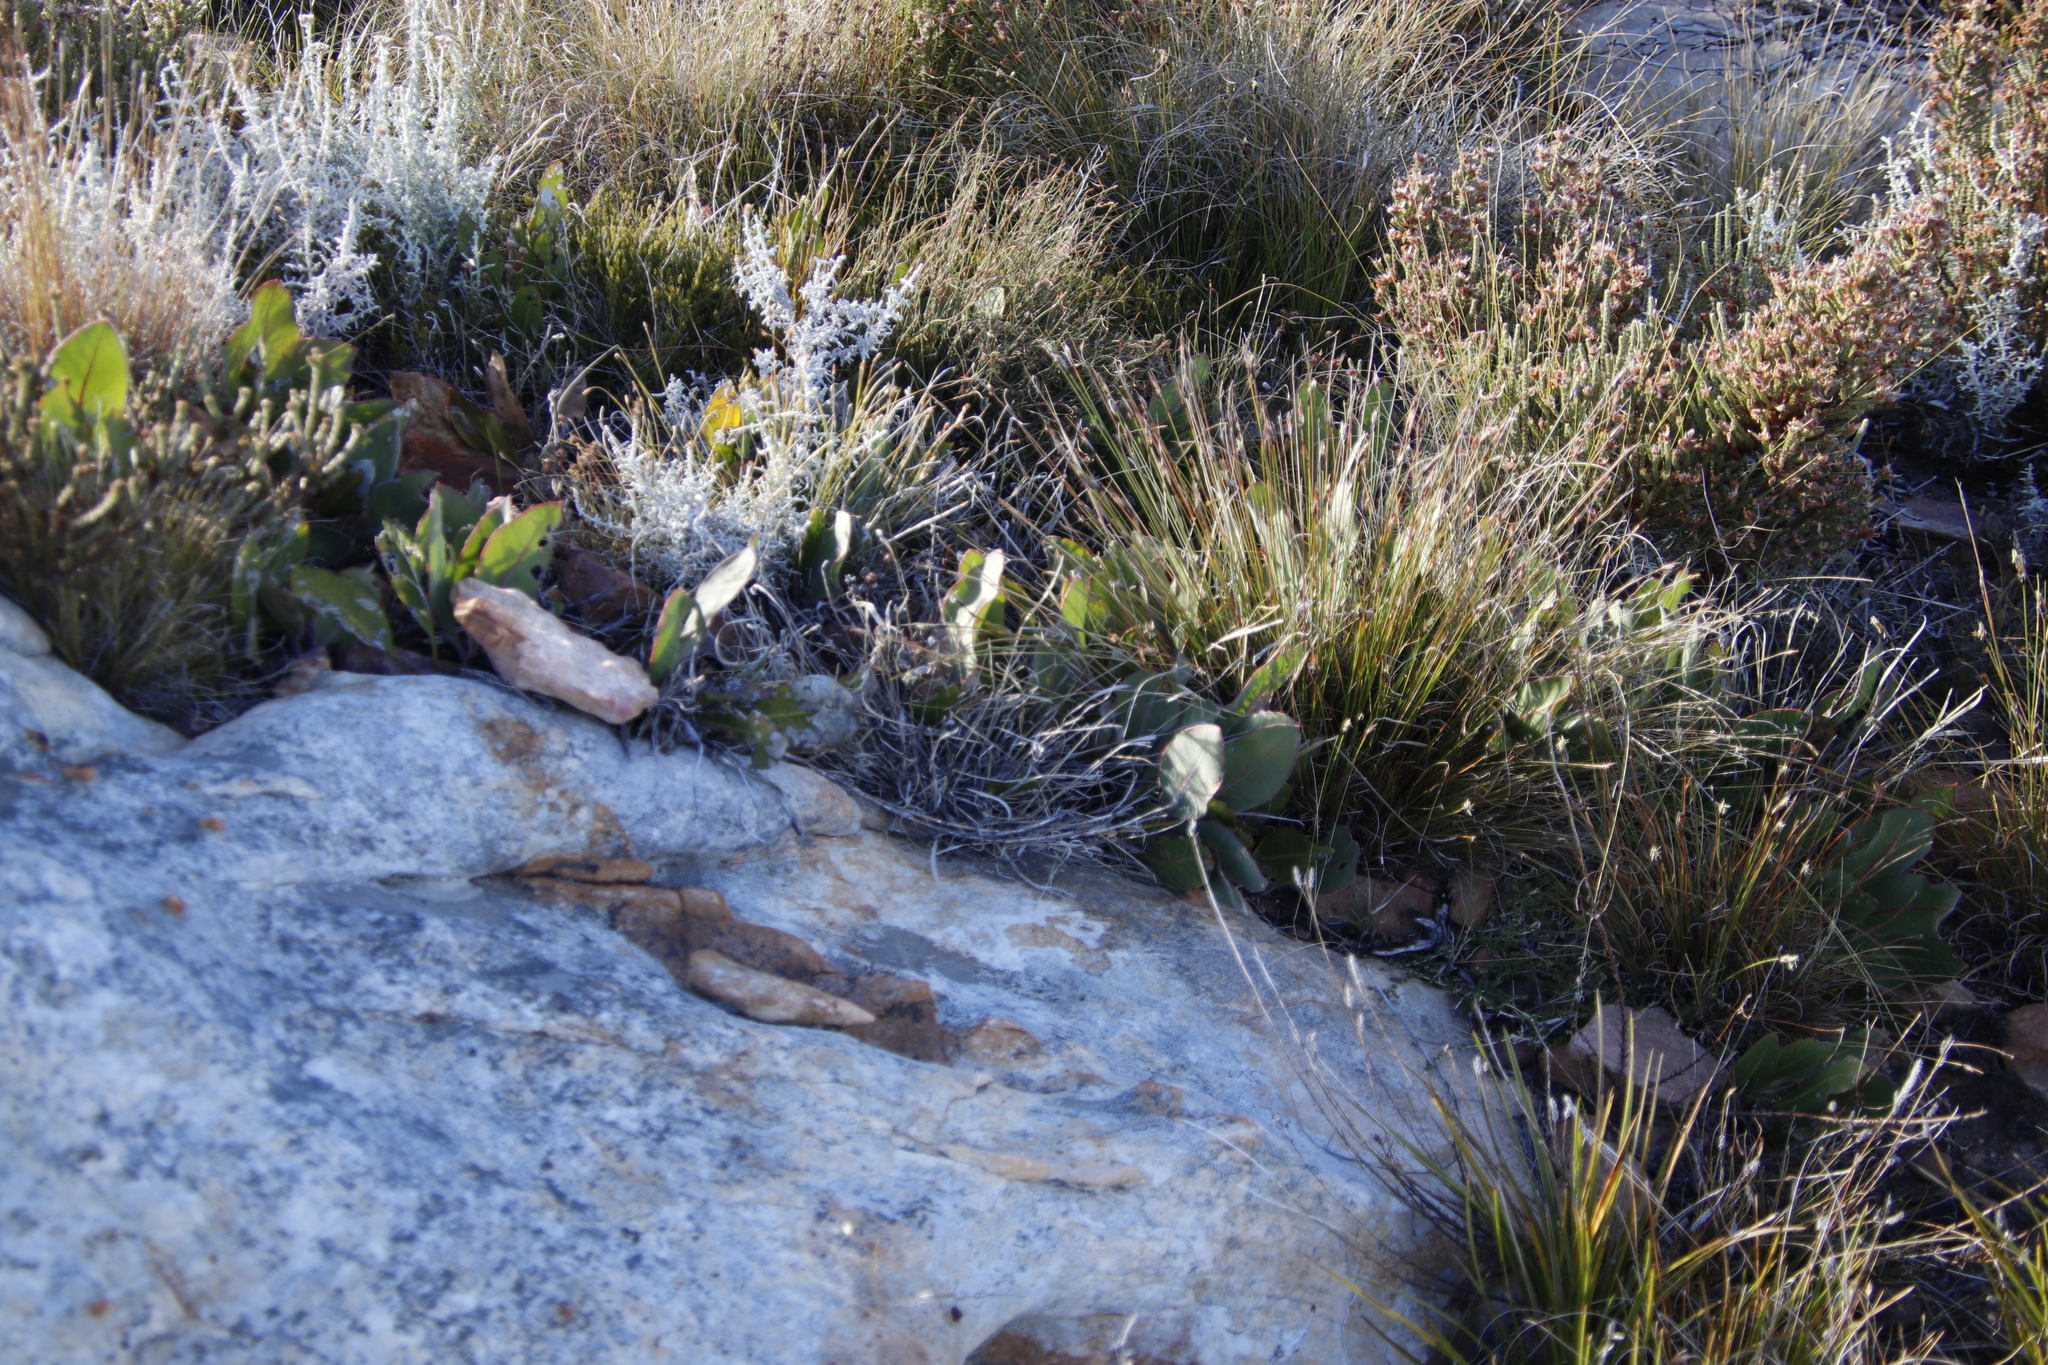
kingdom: Plantae
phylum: Tracheophyta
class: Magnoliopsida
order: Proteales
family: Proteaceae
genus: Protea
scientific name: Protea scolopendriifolia
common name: Harts-tongue-fern sugarbush
